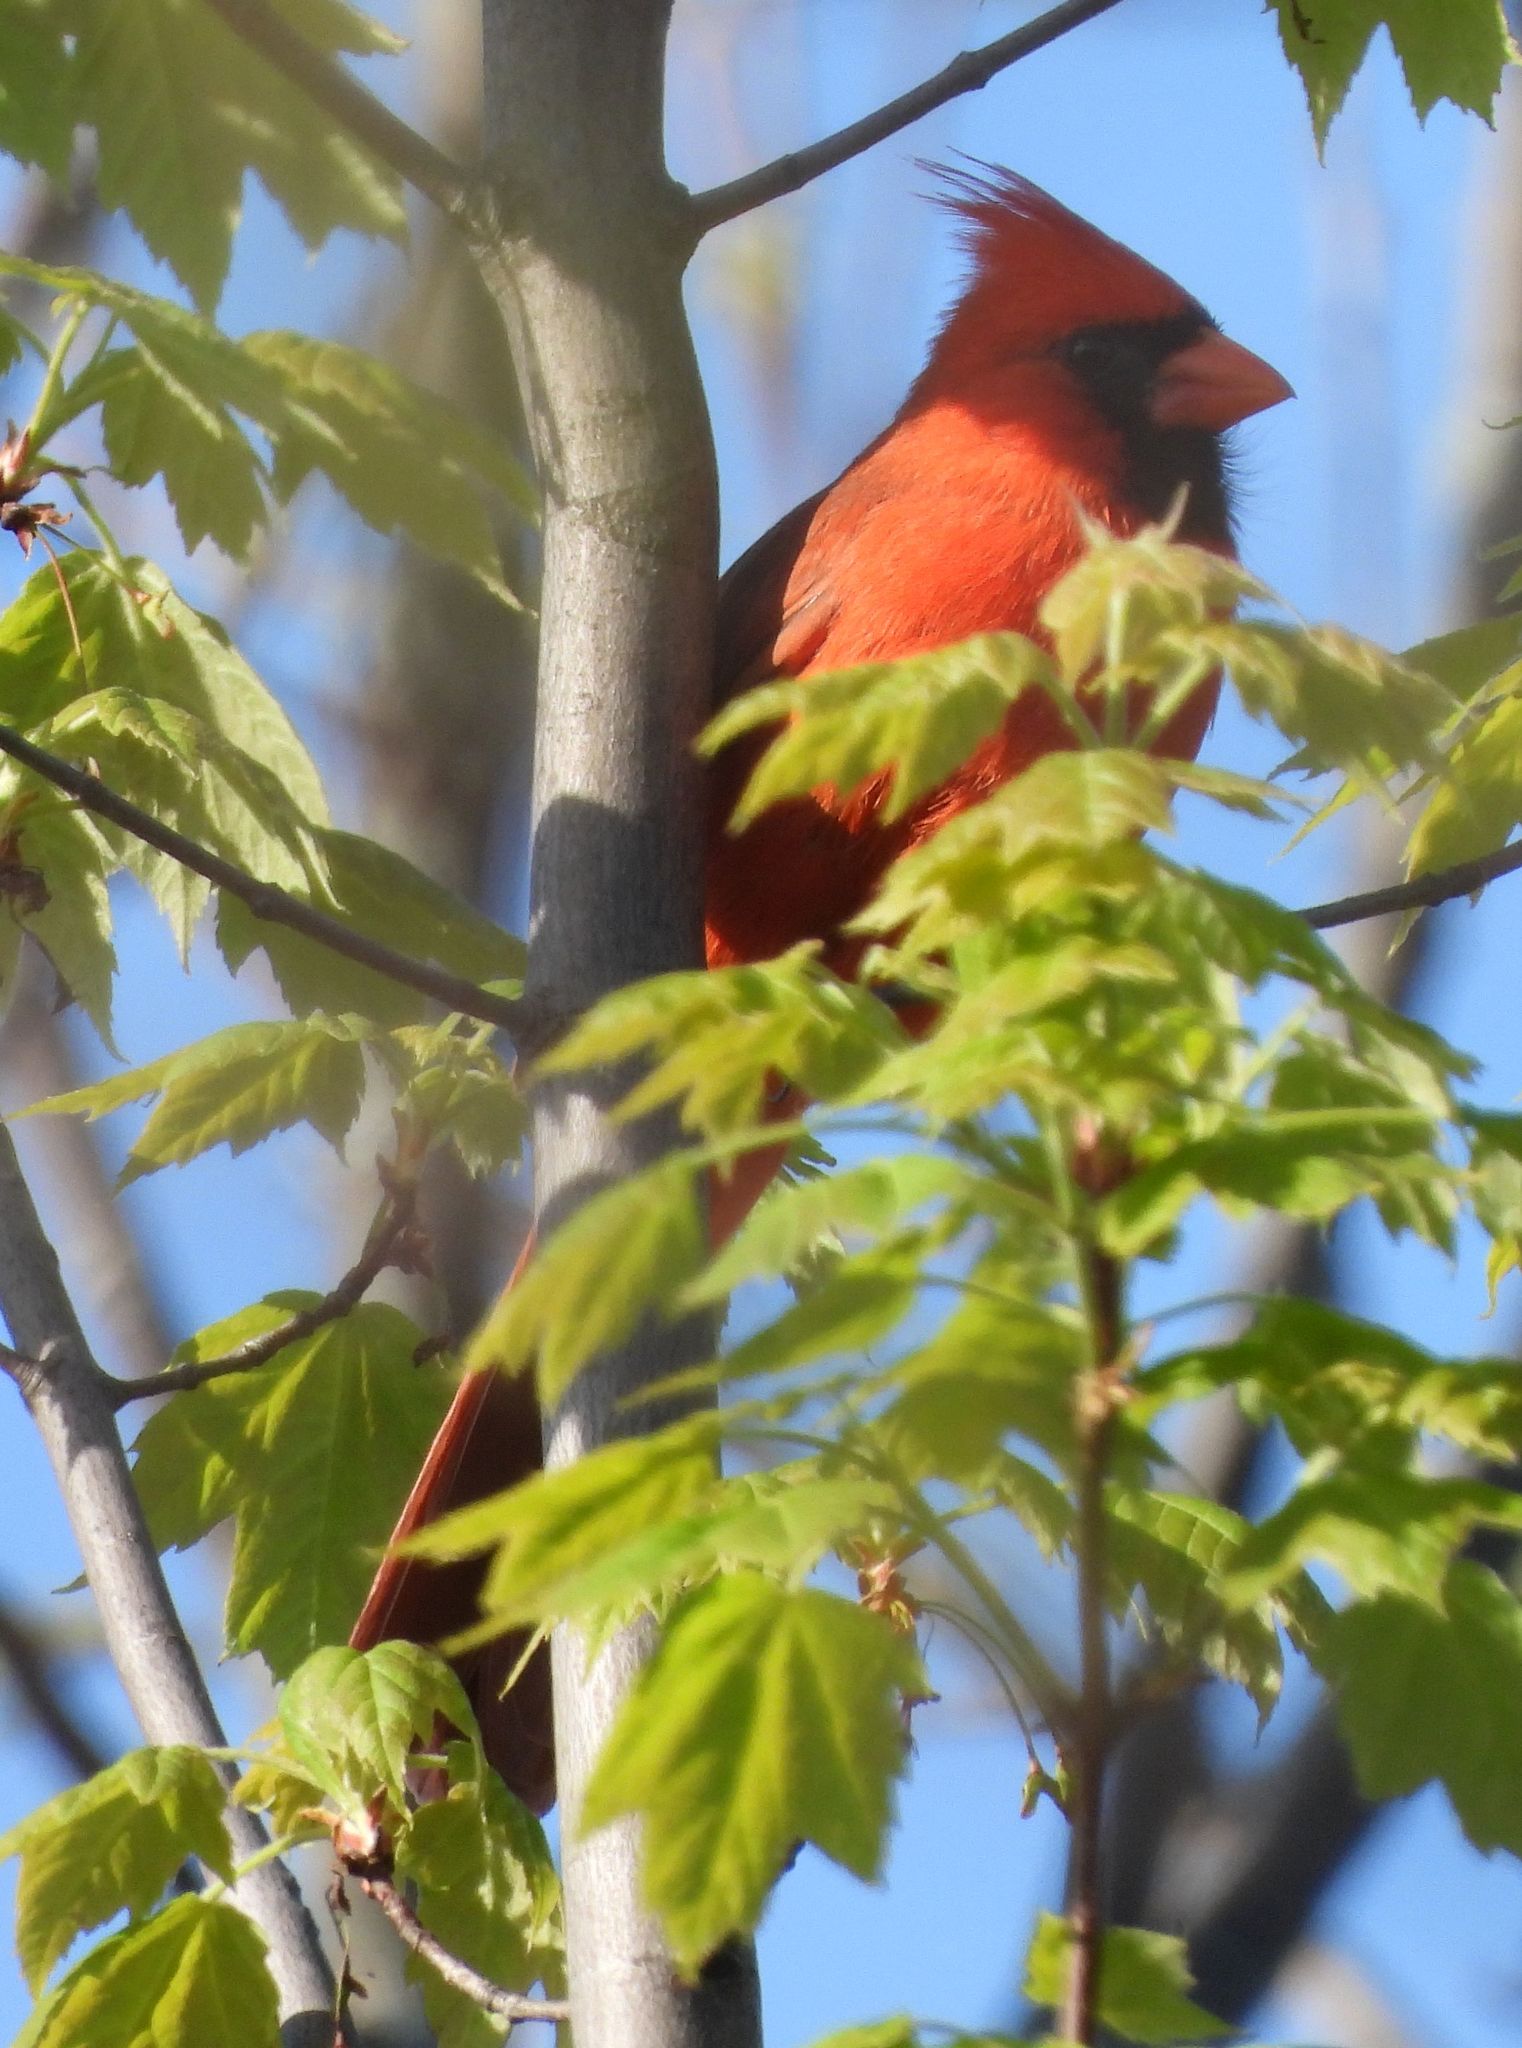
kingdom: Animalia
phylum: Chordata
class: Aves
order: Passeriformes
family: Cardinalidae
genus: Cardinalis
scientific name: Cardinalis cardinalis
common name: Northern cardinal
